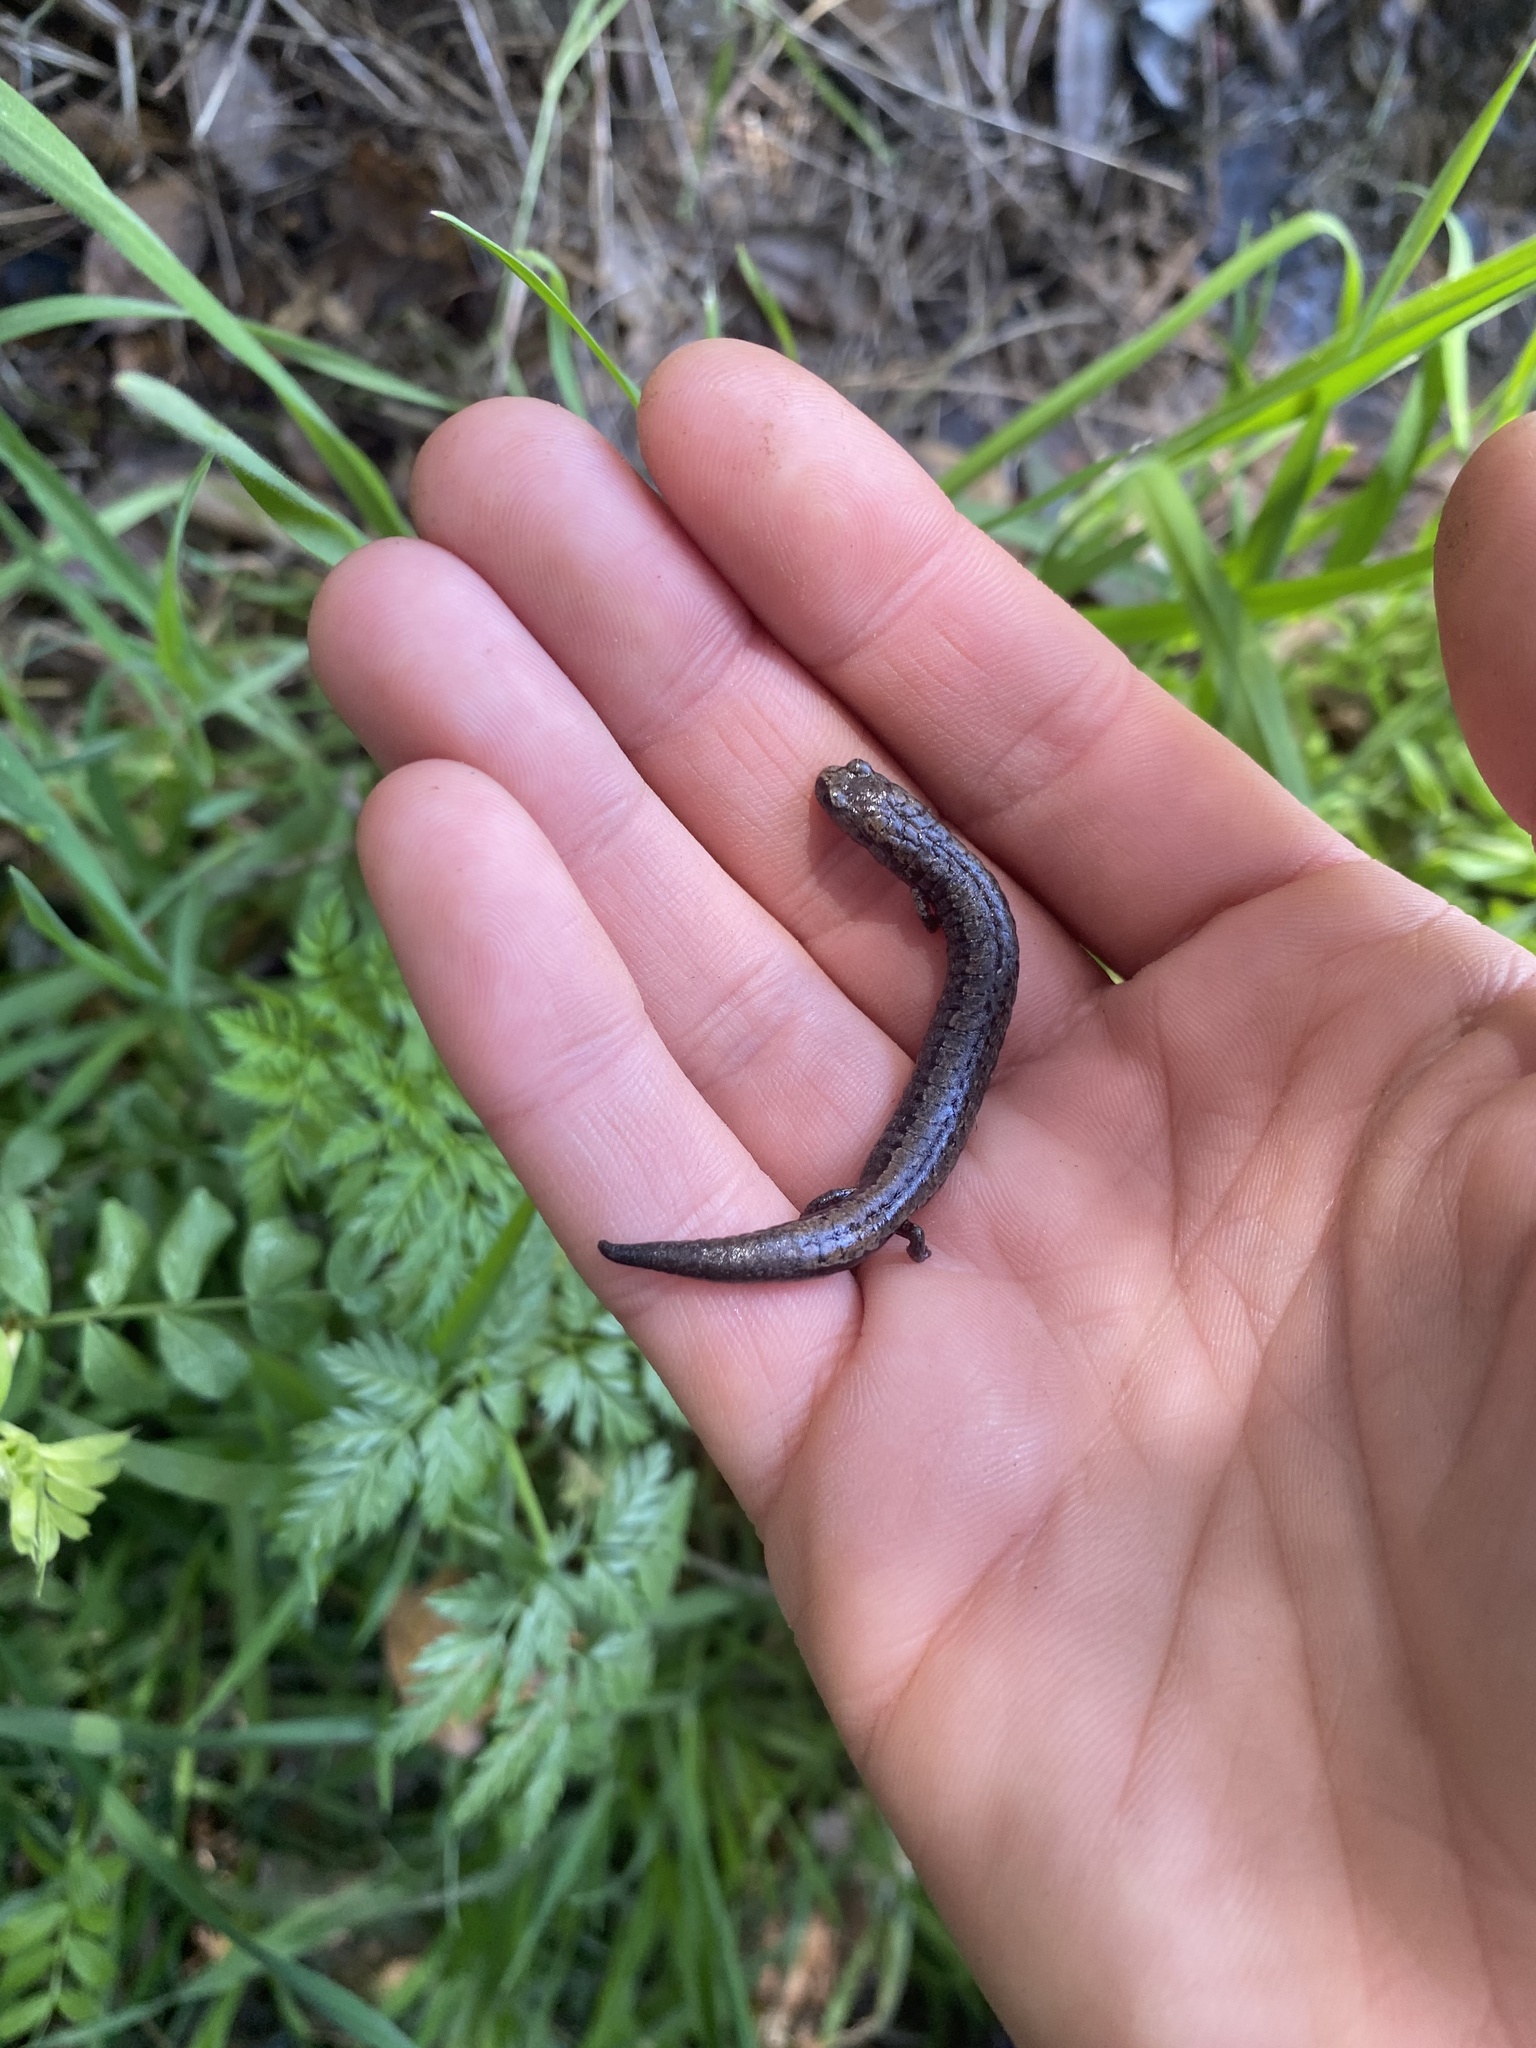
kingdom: Animalia
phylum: Chordata
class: Amphibia
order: Caudata
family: Plethodontidae
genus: Batrachoseps
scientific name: Batrachoseps attenuatus
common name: California slender salamander
